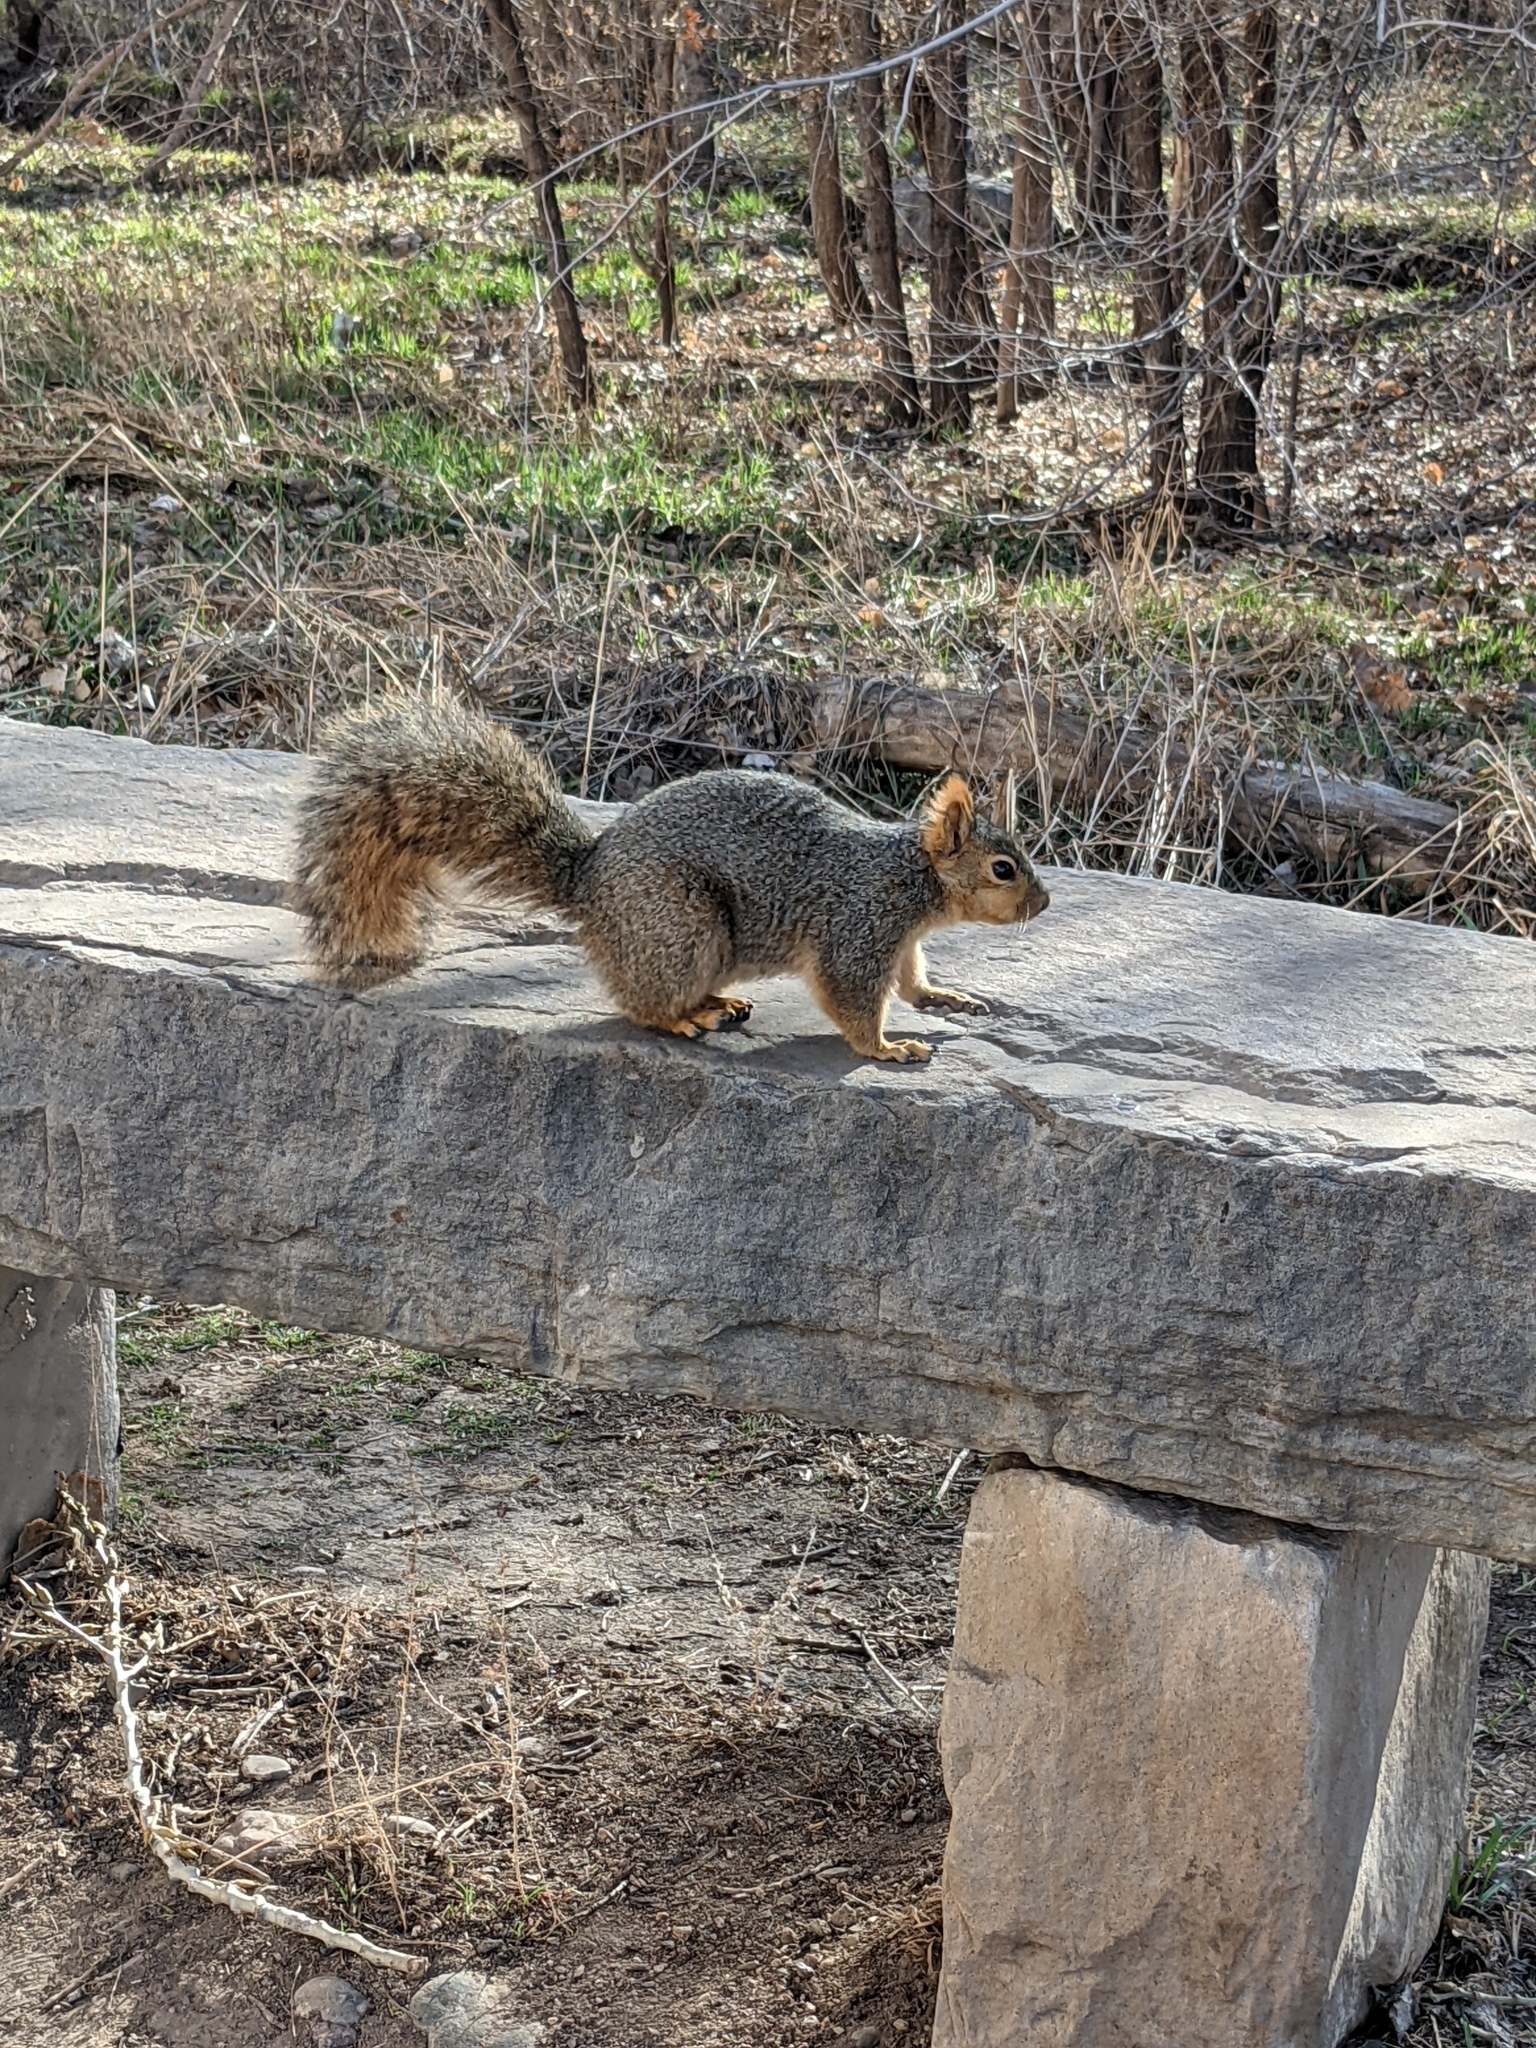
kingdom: Animalia
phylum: Chordata
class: Mammalia
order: Rodentia
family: Sciuridae
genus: Sciurus
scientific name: Sciurus niger
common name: Fox squirrel
